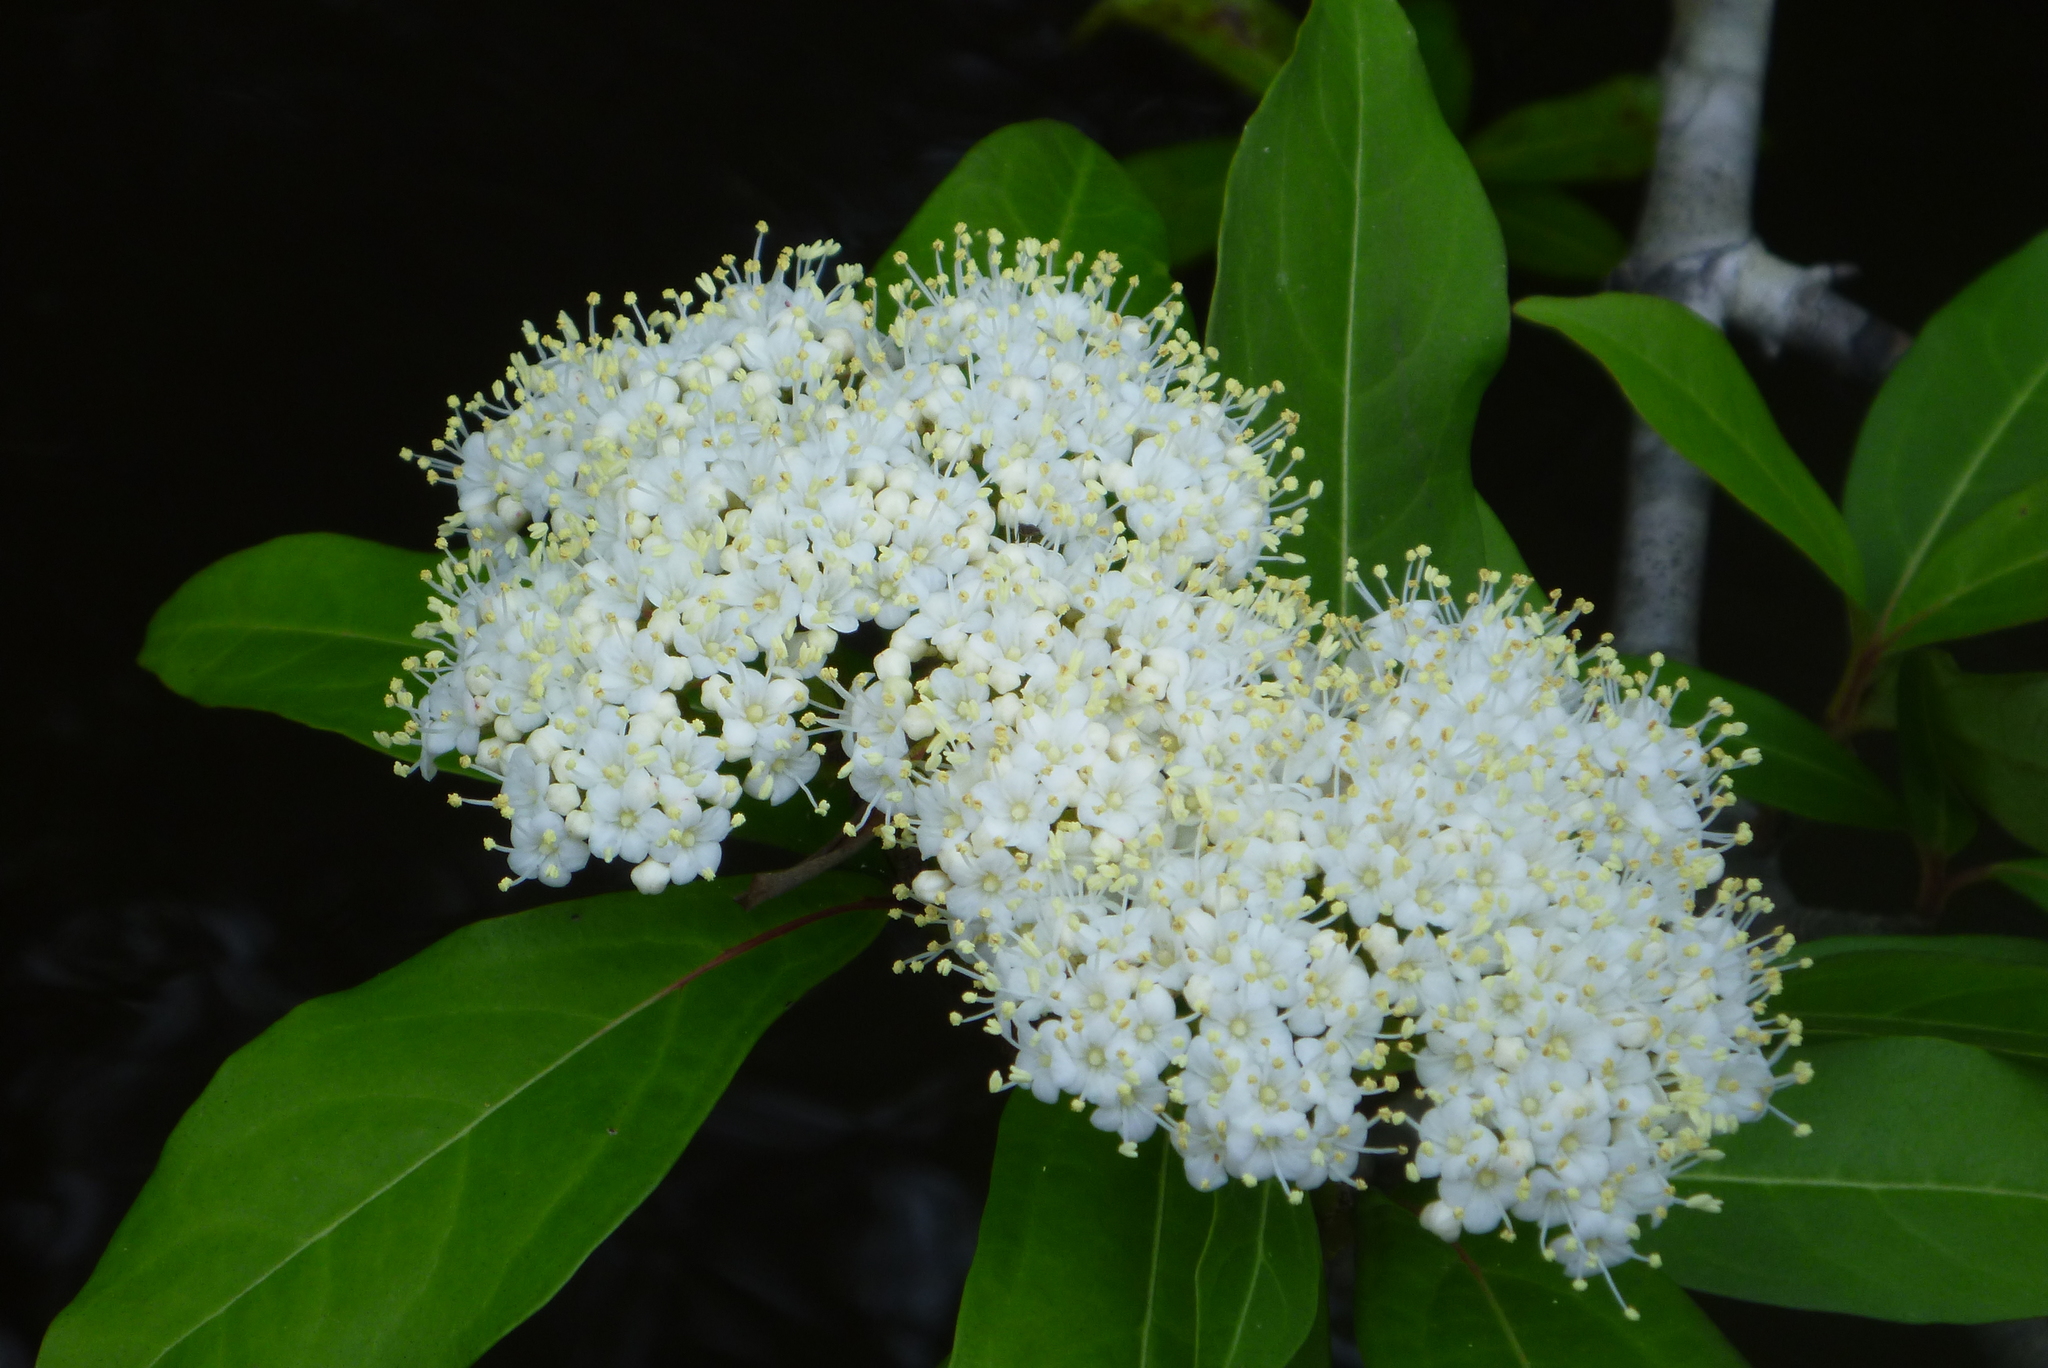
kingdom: Plantae
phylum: Tracheophyta
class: Magnoliopsida
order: Dipsacales
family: Viburnaceae
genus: Viburnum
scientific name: Viburnum nudum
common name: Possum haw
